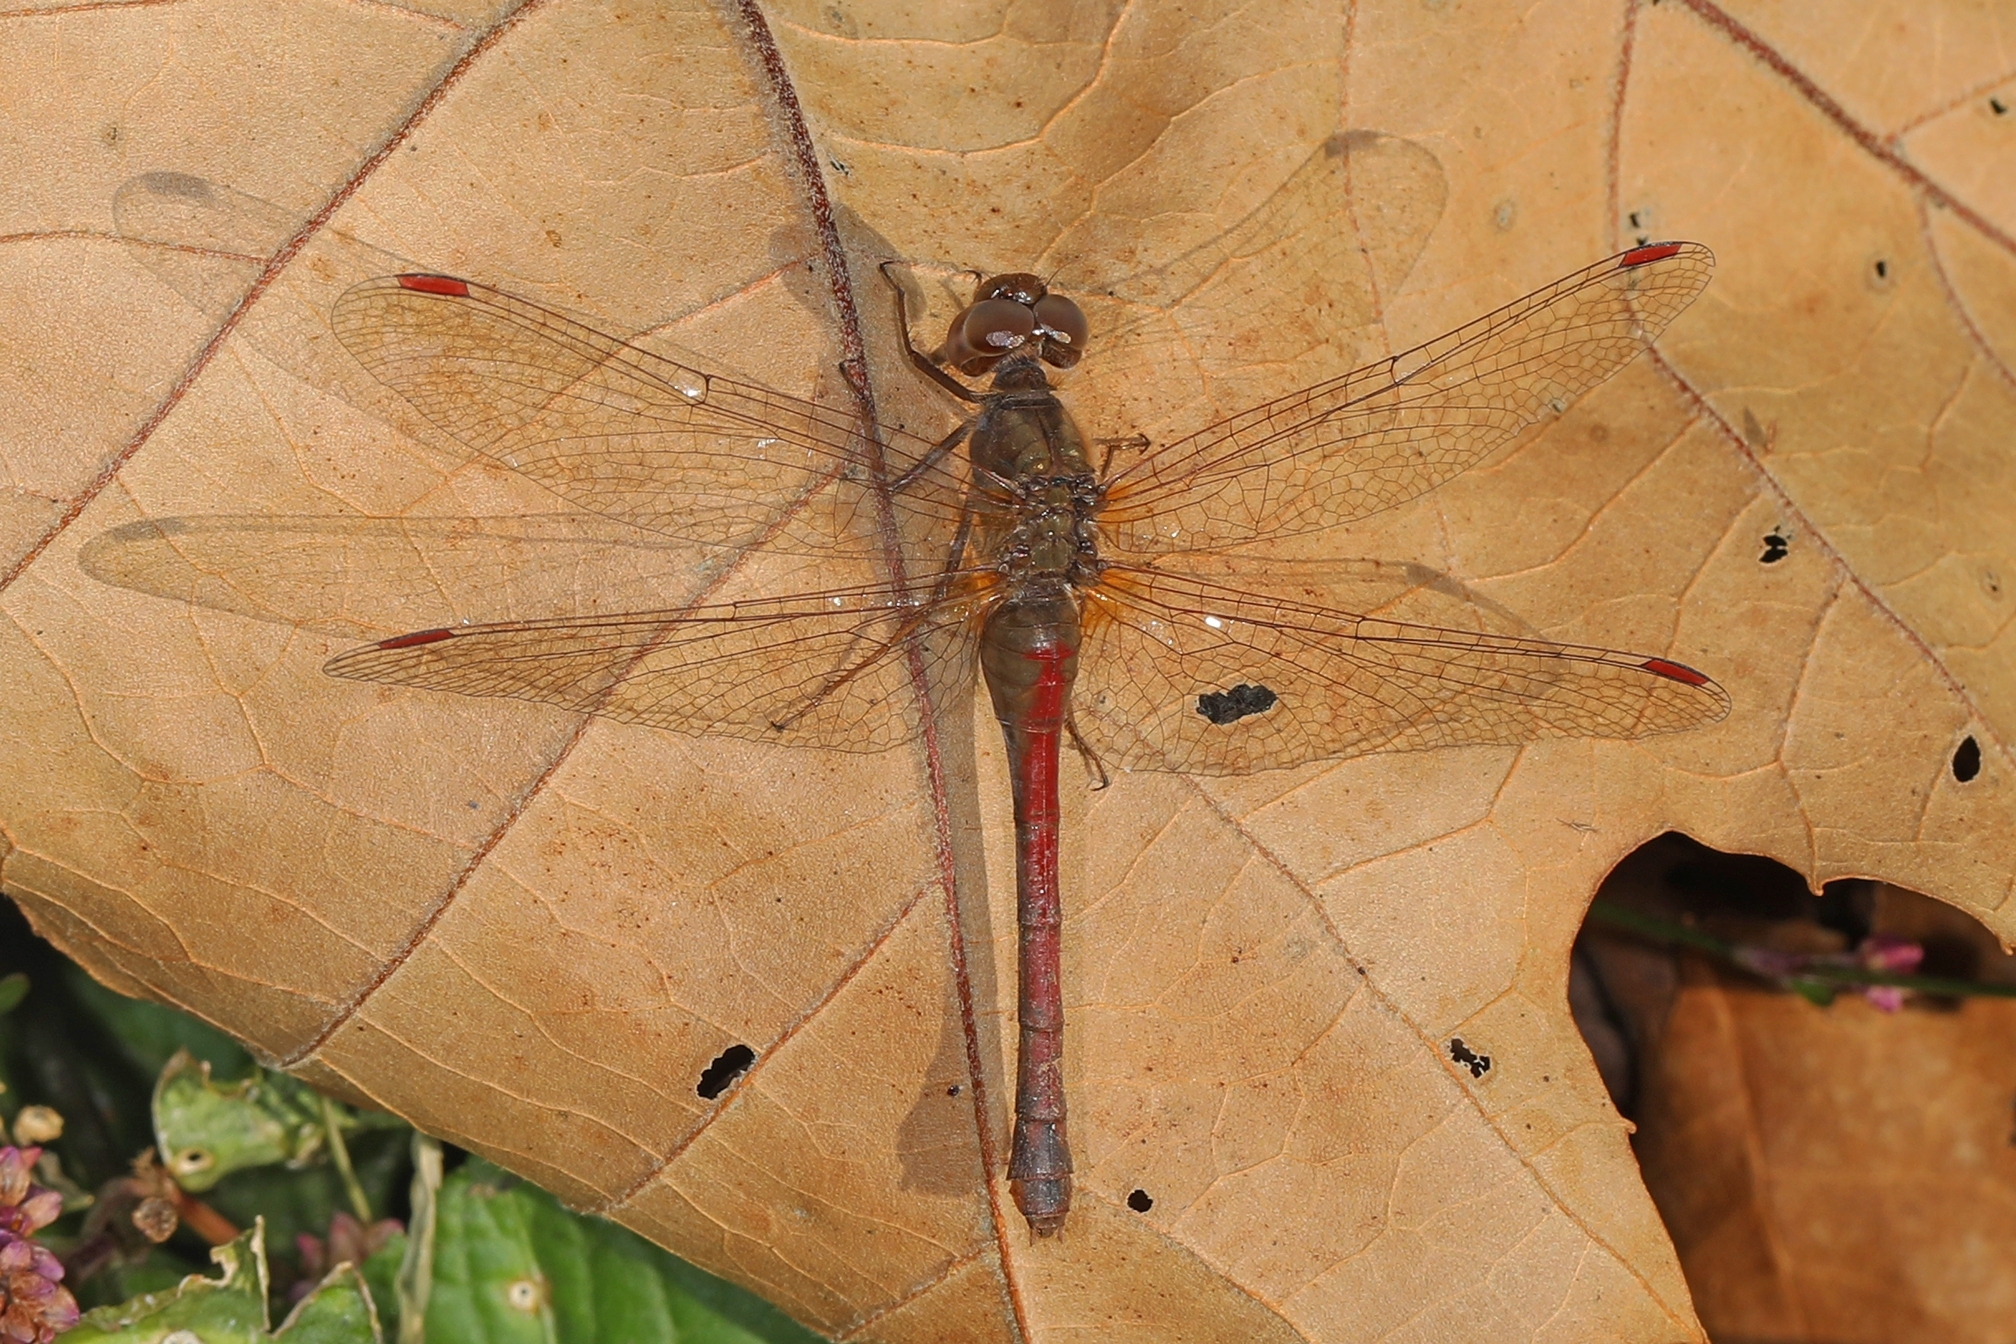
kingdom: Animalia
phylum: Arthropoda
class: Insecta
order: Odonata
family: Libellulidae
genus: Sympetrum
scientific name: Sympetrum vicinum
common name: Autumn meadowhawk
